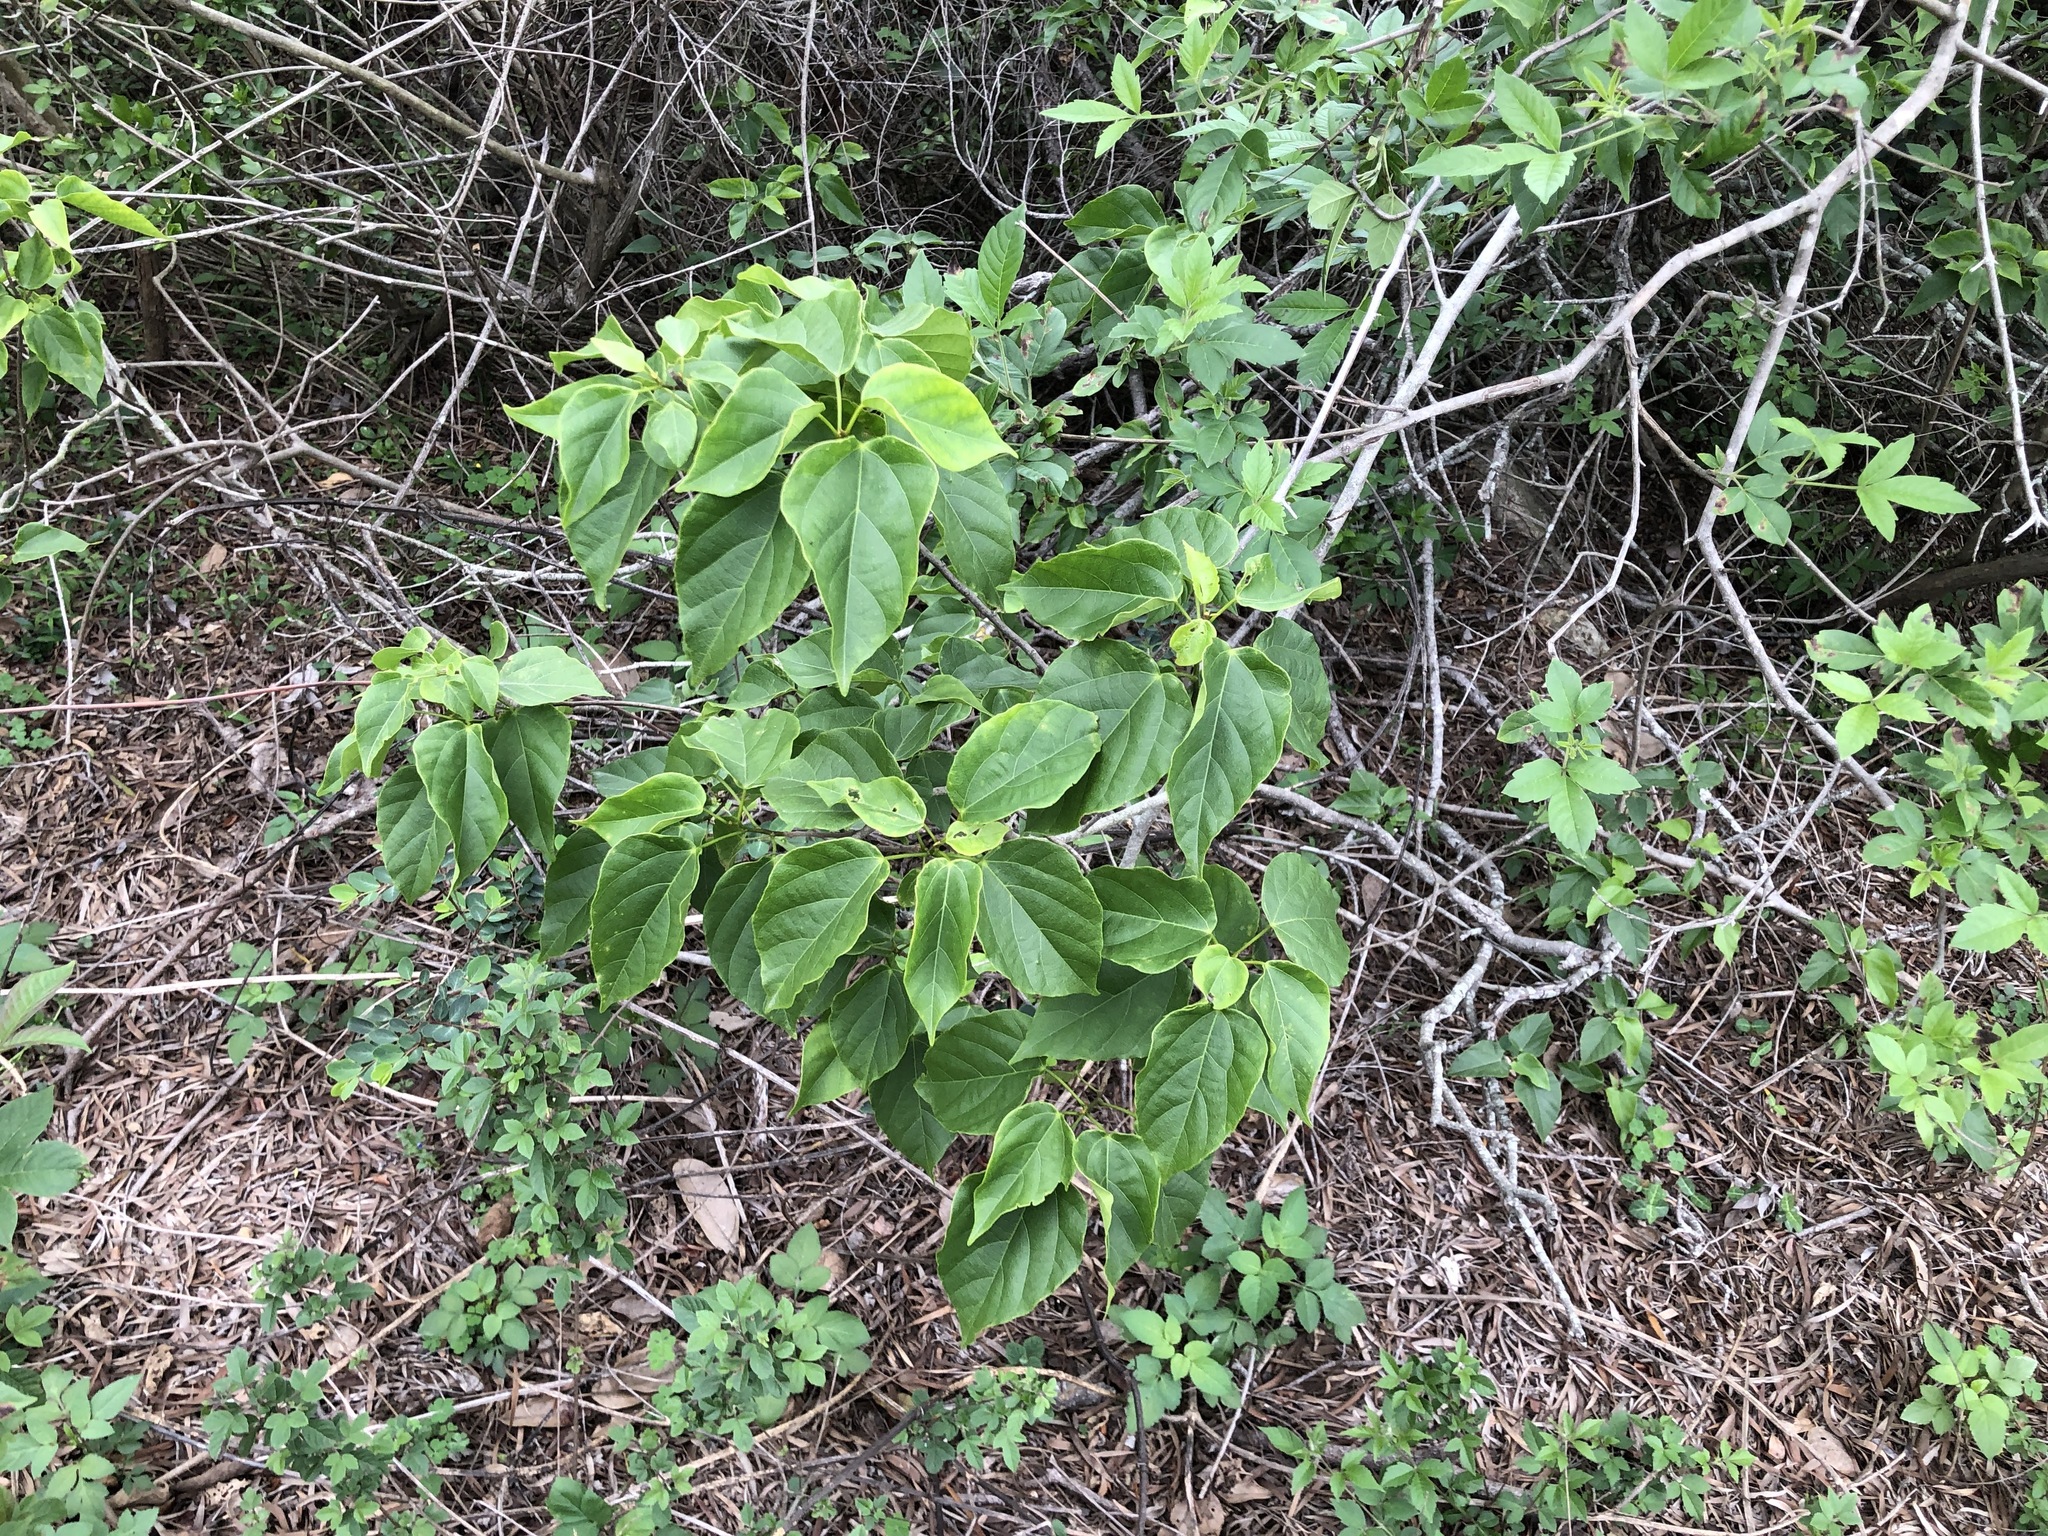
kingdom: Plantae
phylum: Tracheophyta
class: Magnoliopsida
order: Malpighiales
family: Euphorbiaceae
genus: Mallotus
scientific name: Mallotus repandus
